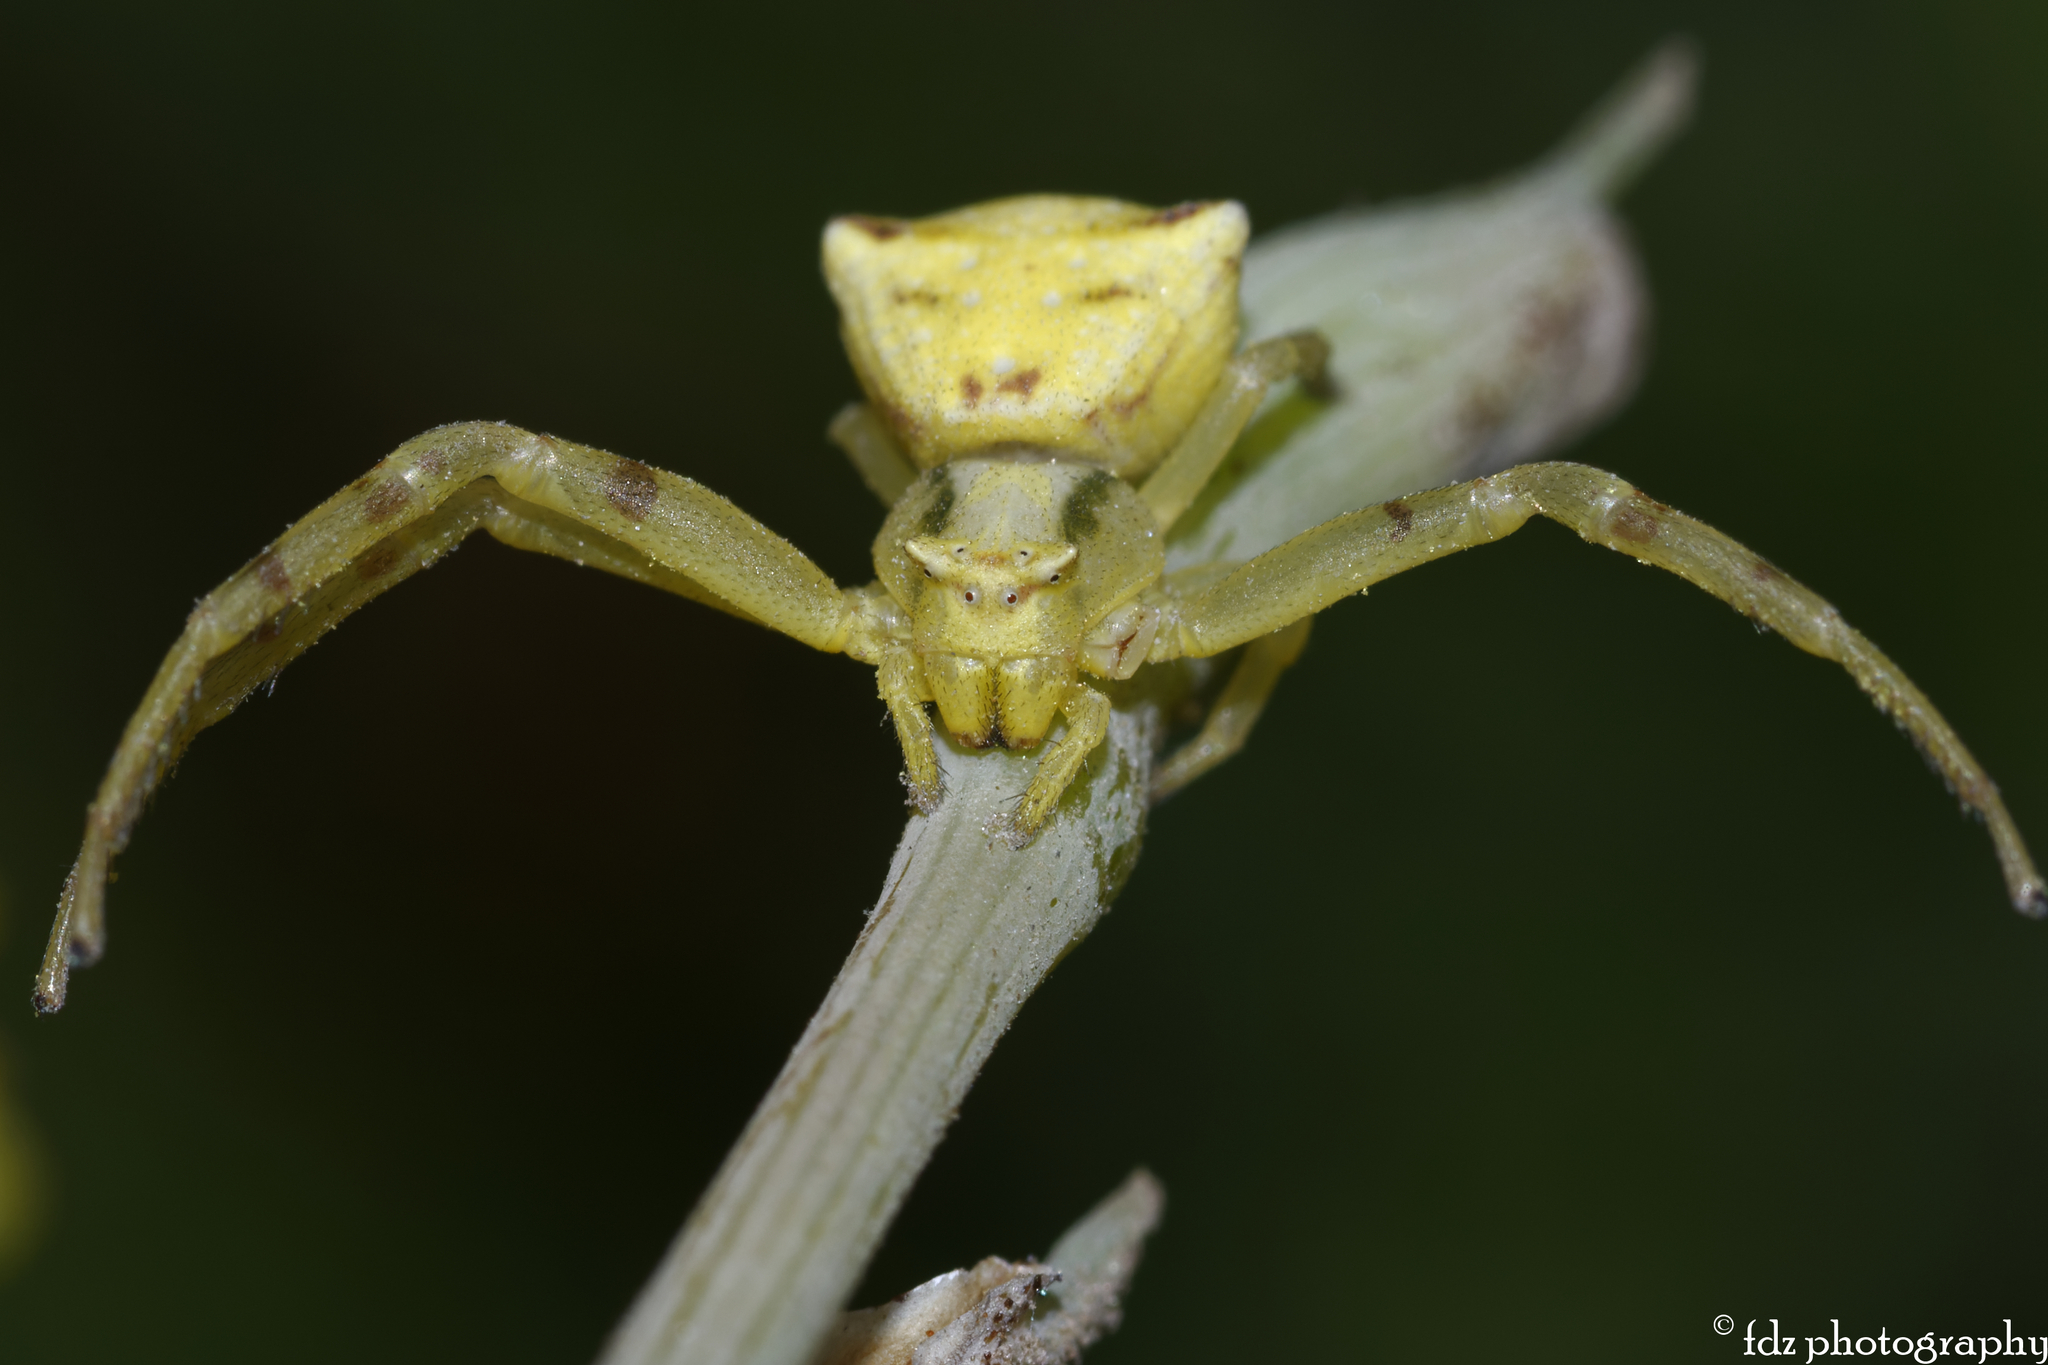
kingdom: Animalia
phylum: Arthropoda
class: Arachnida
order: Araneae
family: Thomisidae
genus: Thomisus
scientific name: Thomisus onustus
